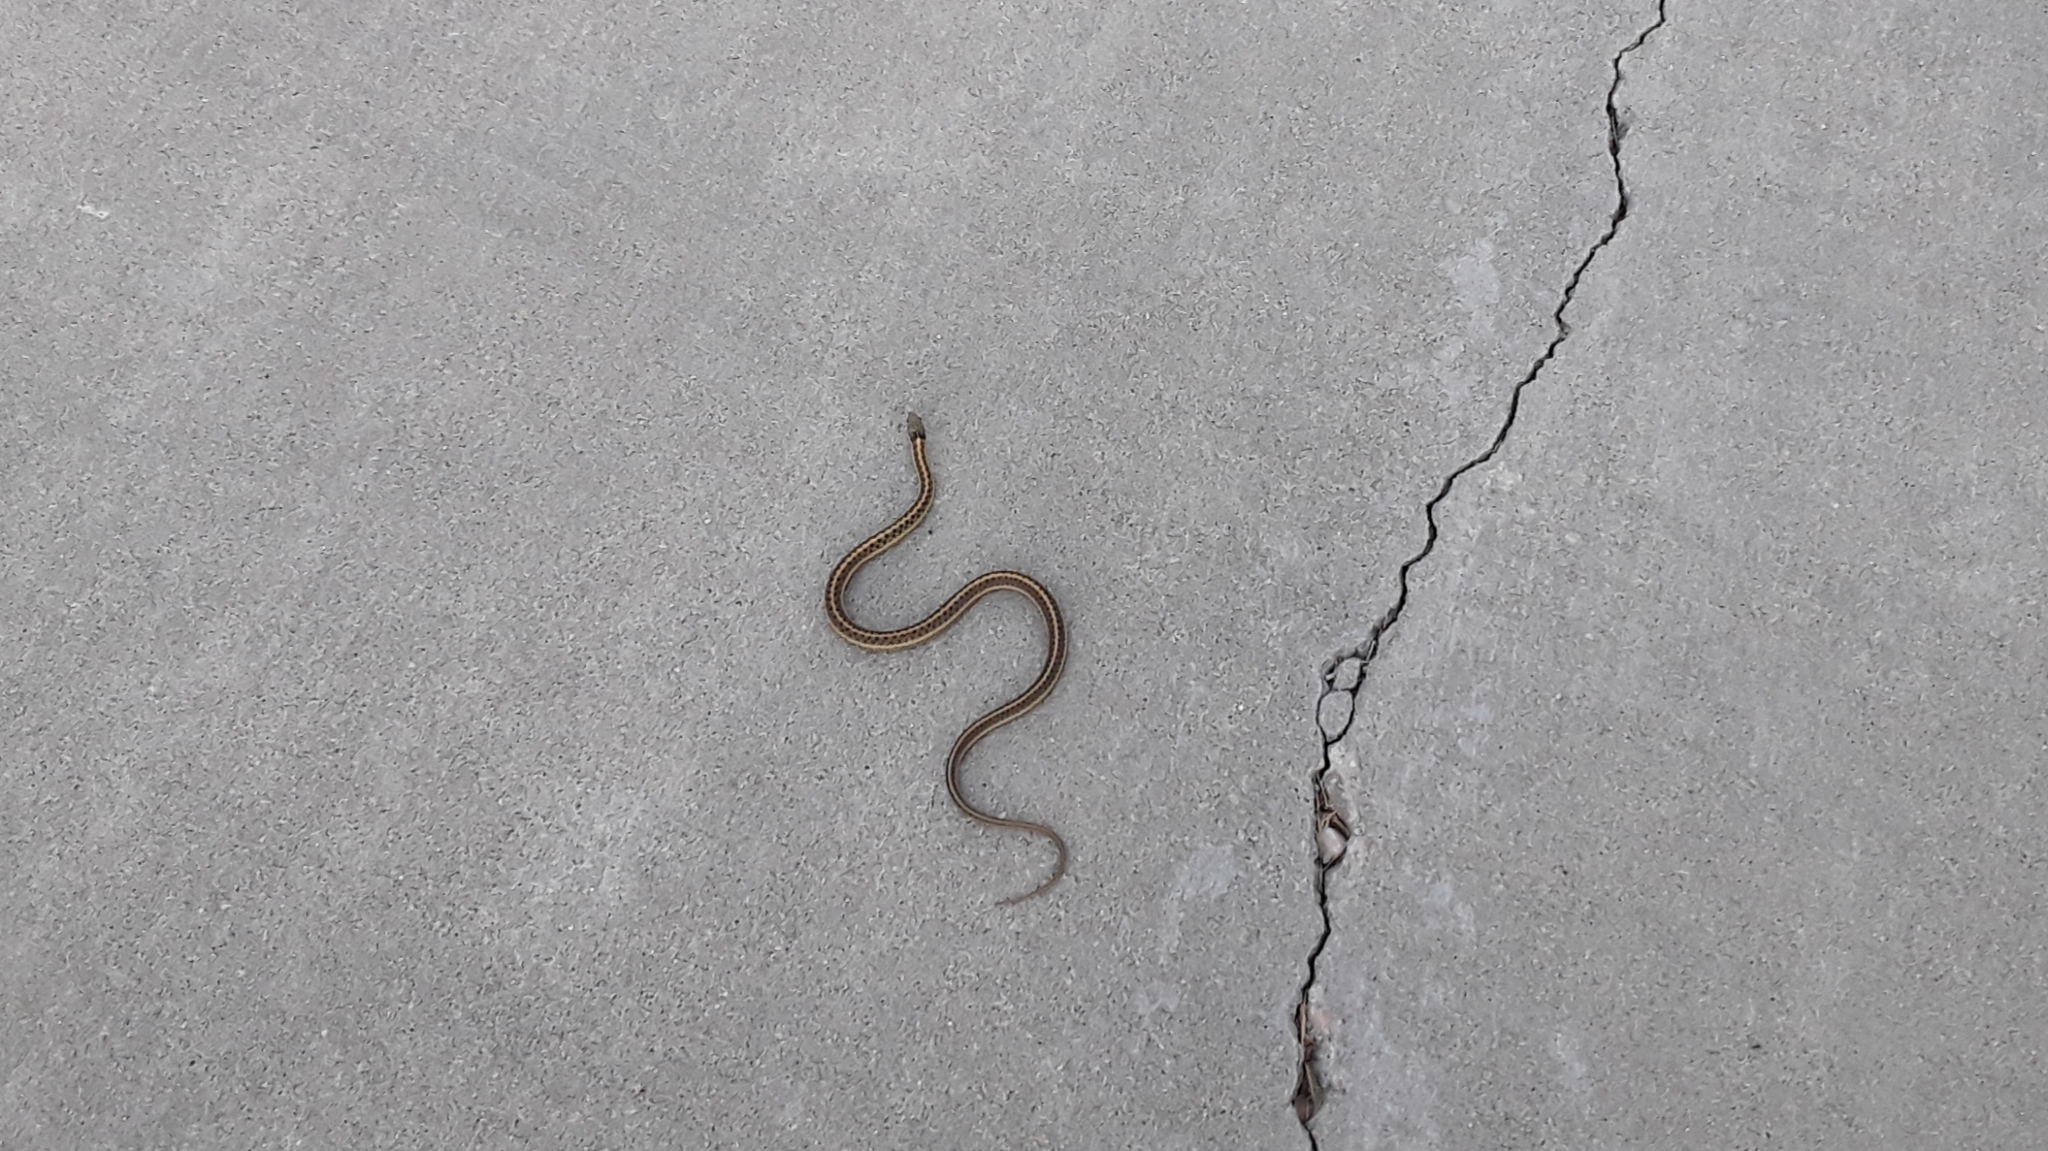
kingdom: Animalia
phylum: Chordata
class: Squamata
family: Colubridae
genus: Thamnophis
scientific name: Thamnophis elegans
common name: Western terrestrial garter snake
